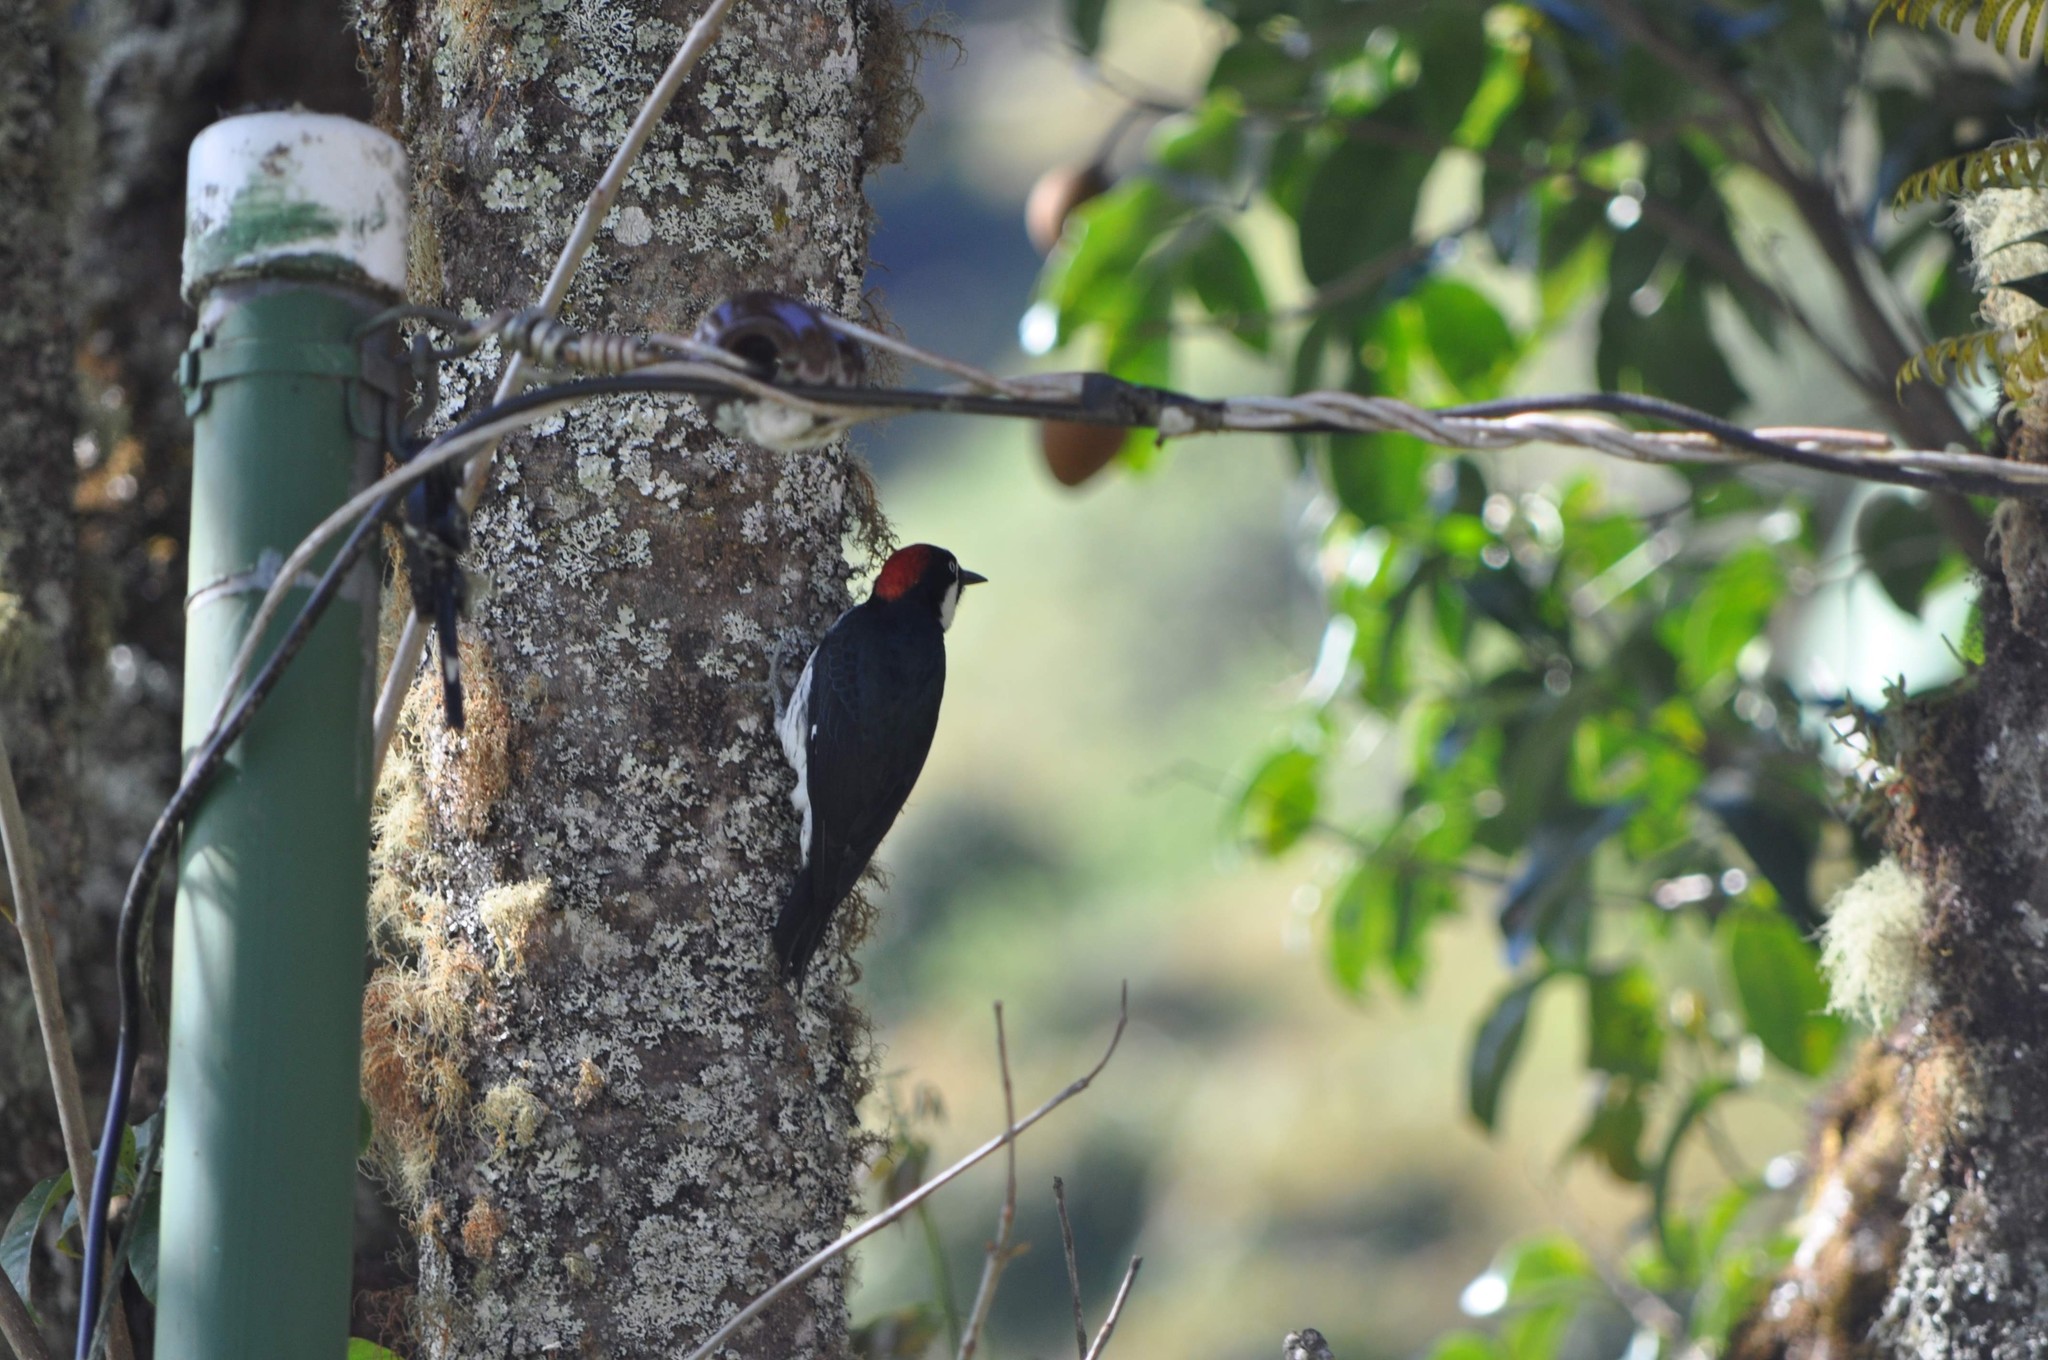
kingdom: Animalia
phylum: Chordata
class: Aves
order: Piciformes
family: Picidae
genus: Melanerpes
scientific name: Melanerpes formicivorus
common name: Acorn woodpecker
